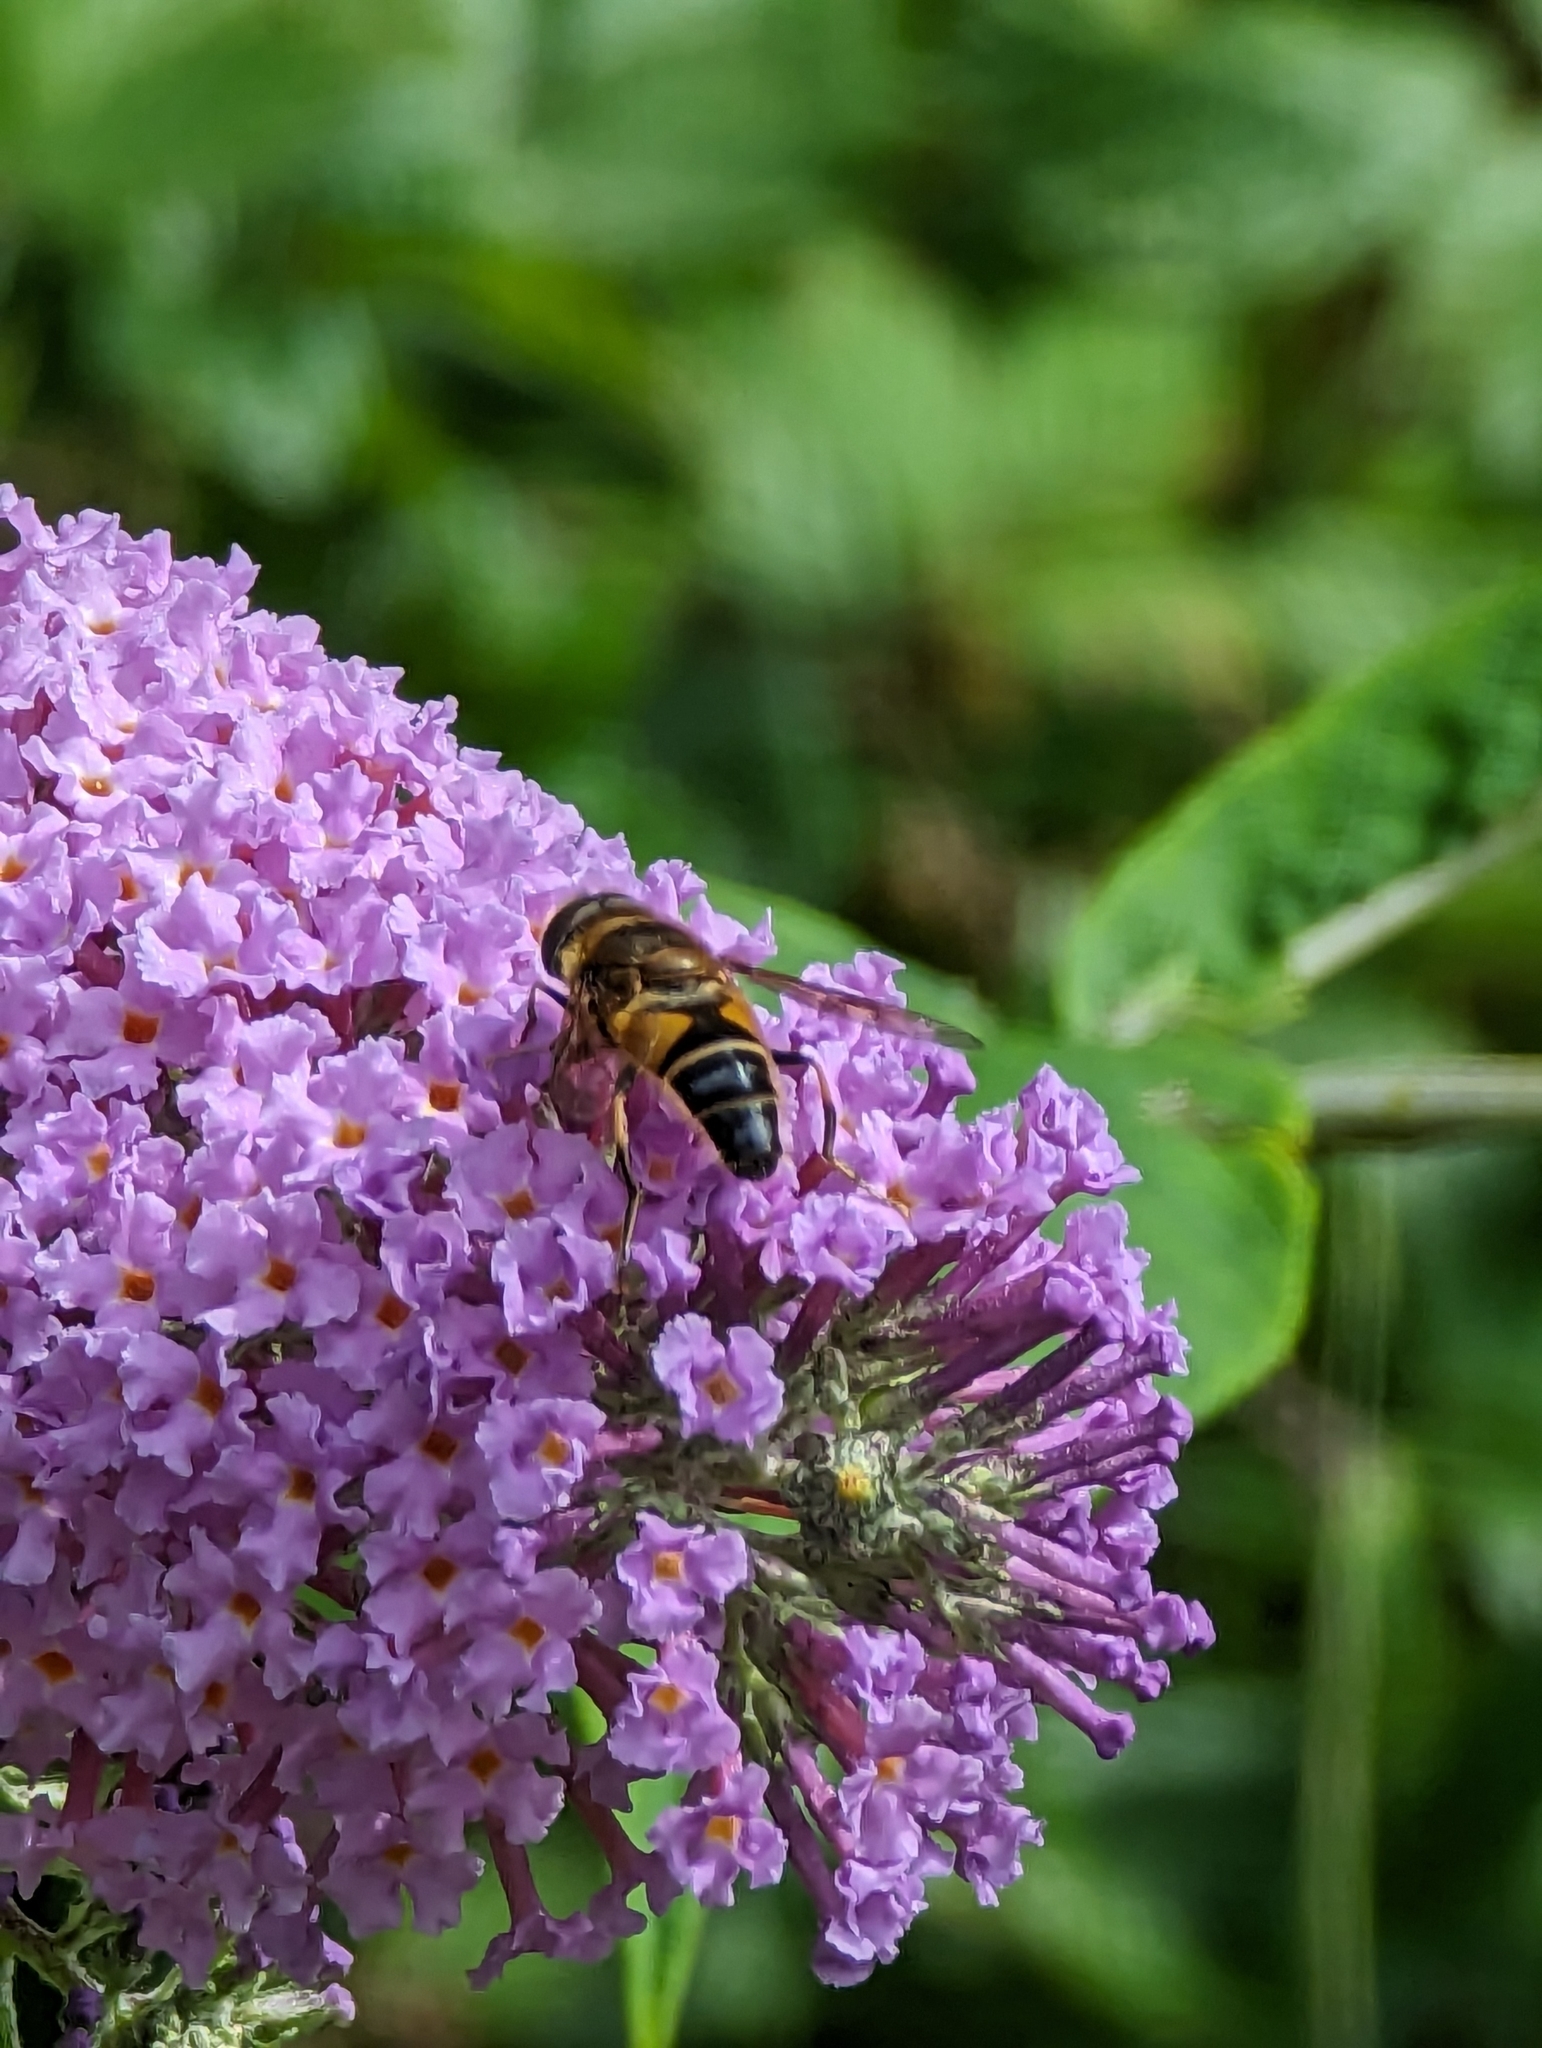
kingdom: Animalia
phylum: Arthropoda
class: Insecta
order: Diptera
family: Syrphidae
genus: Eristalis
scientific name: Eristalis pertinax
